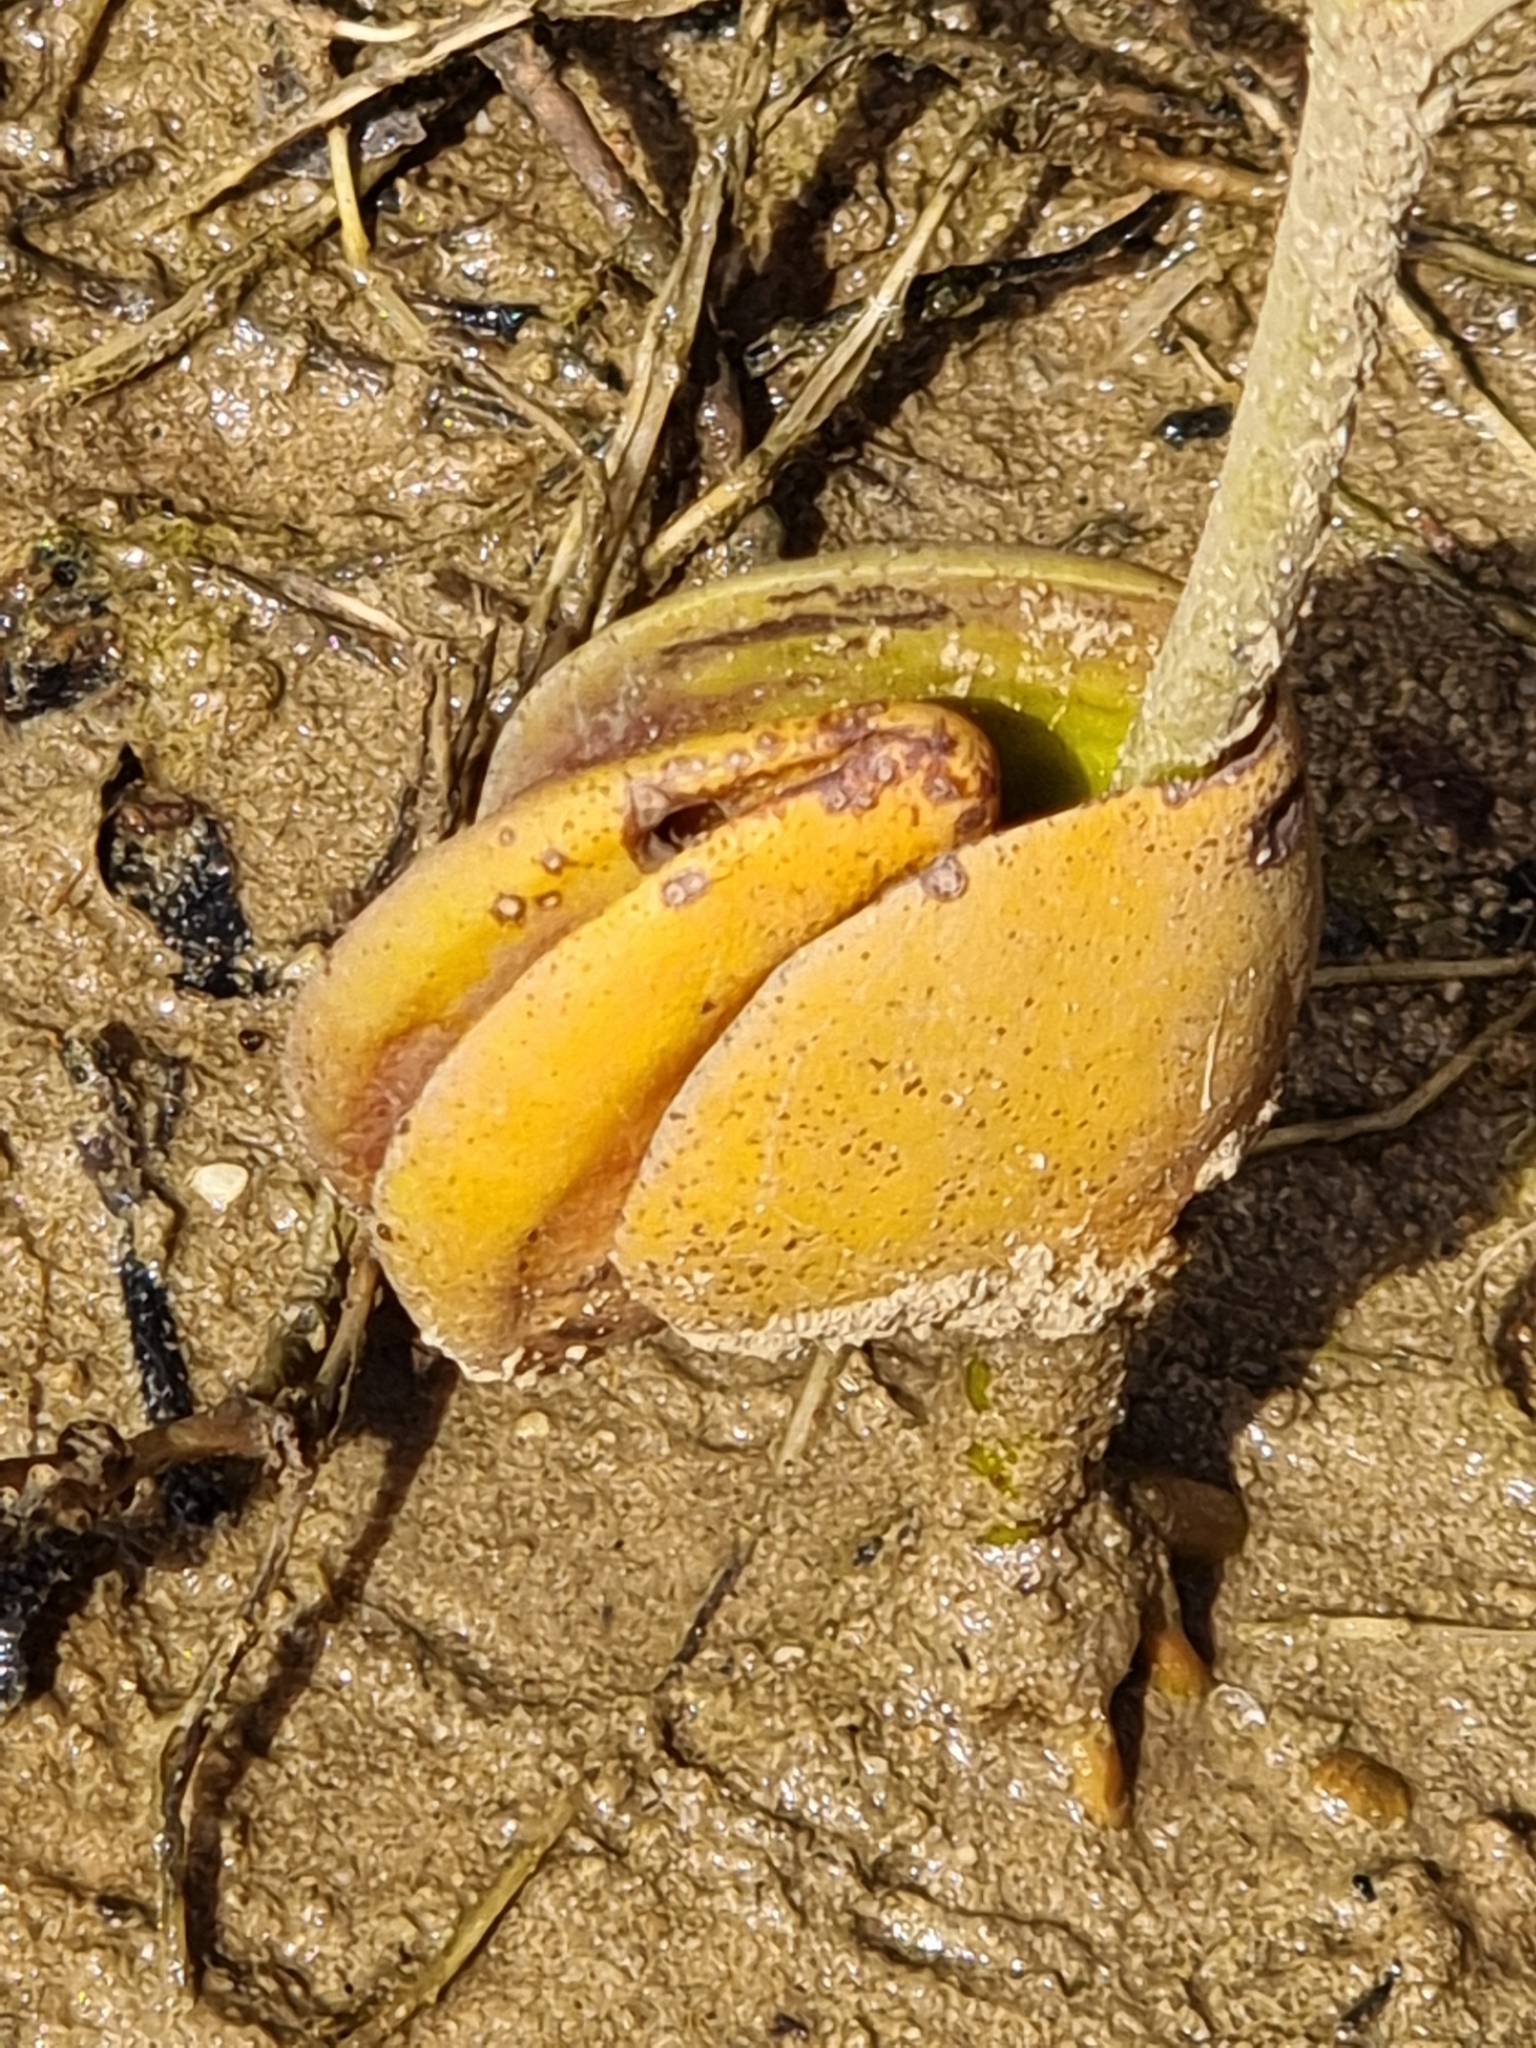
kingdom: Plantae
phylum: Tracheophyta
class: Magnoliopsida
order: Lamiales
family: Acanthaceae
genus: Avicennia
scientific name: Avicennia marina
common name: Gray mangrove
